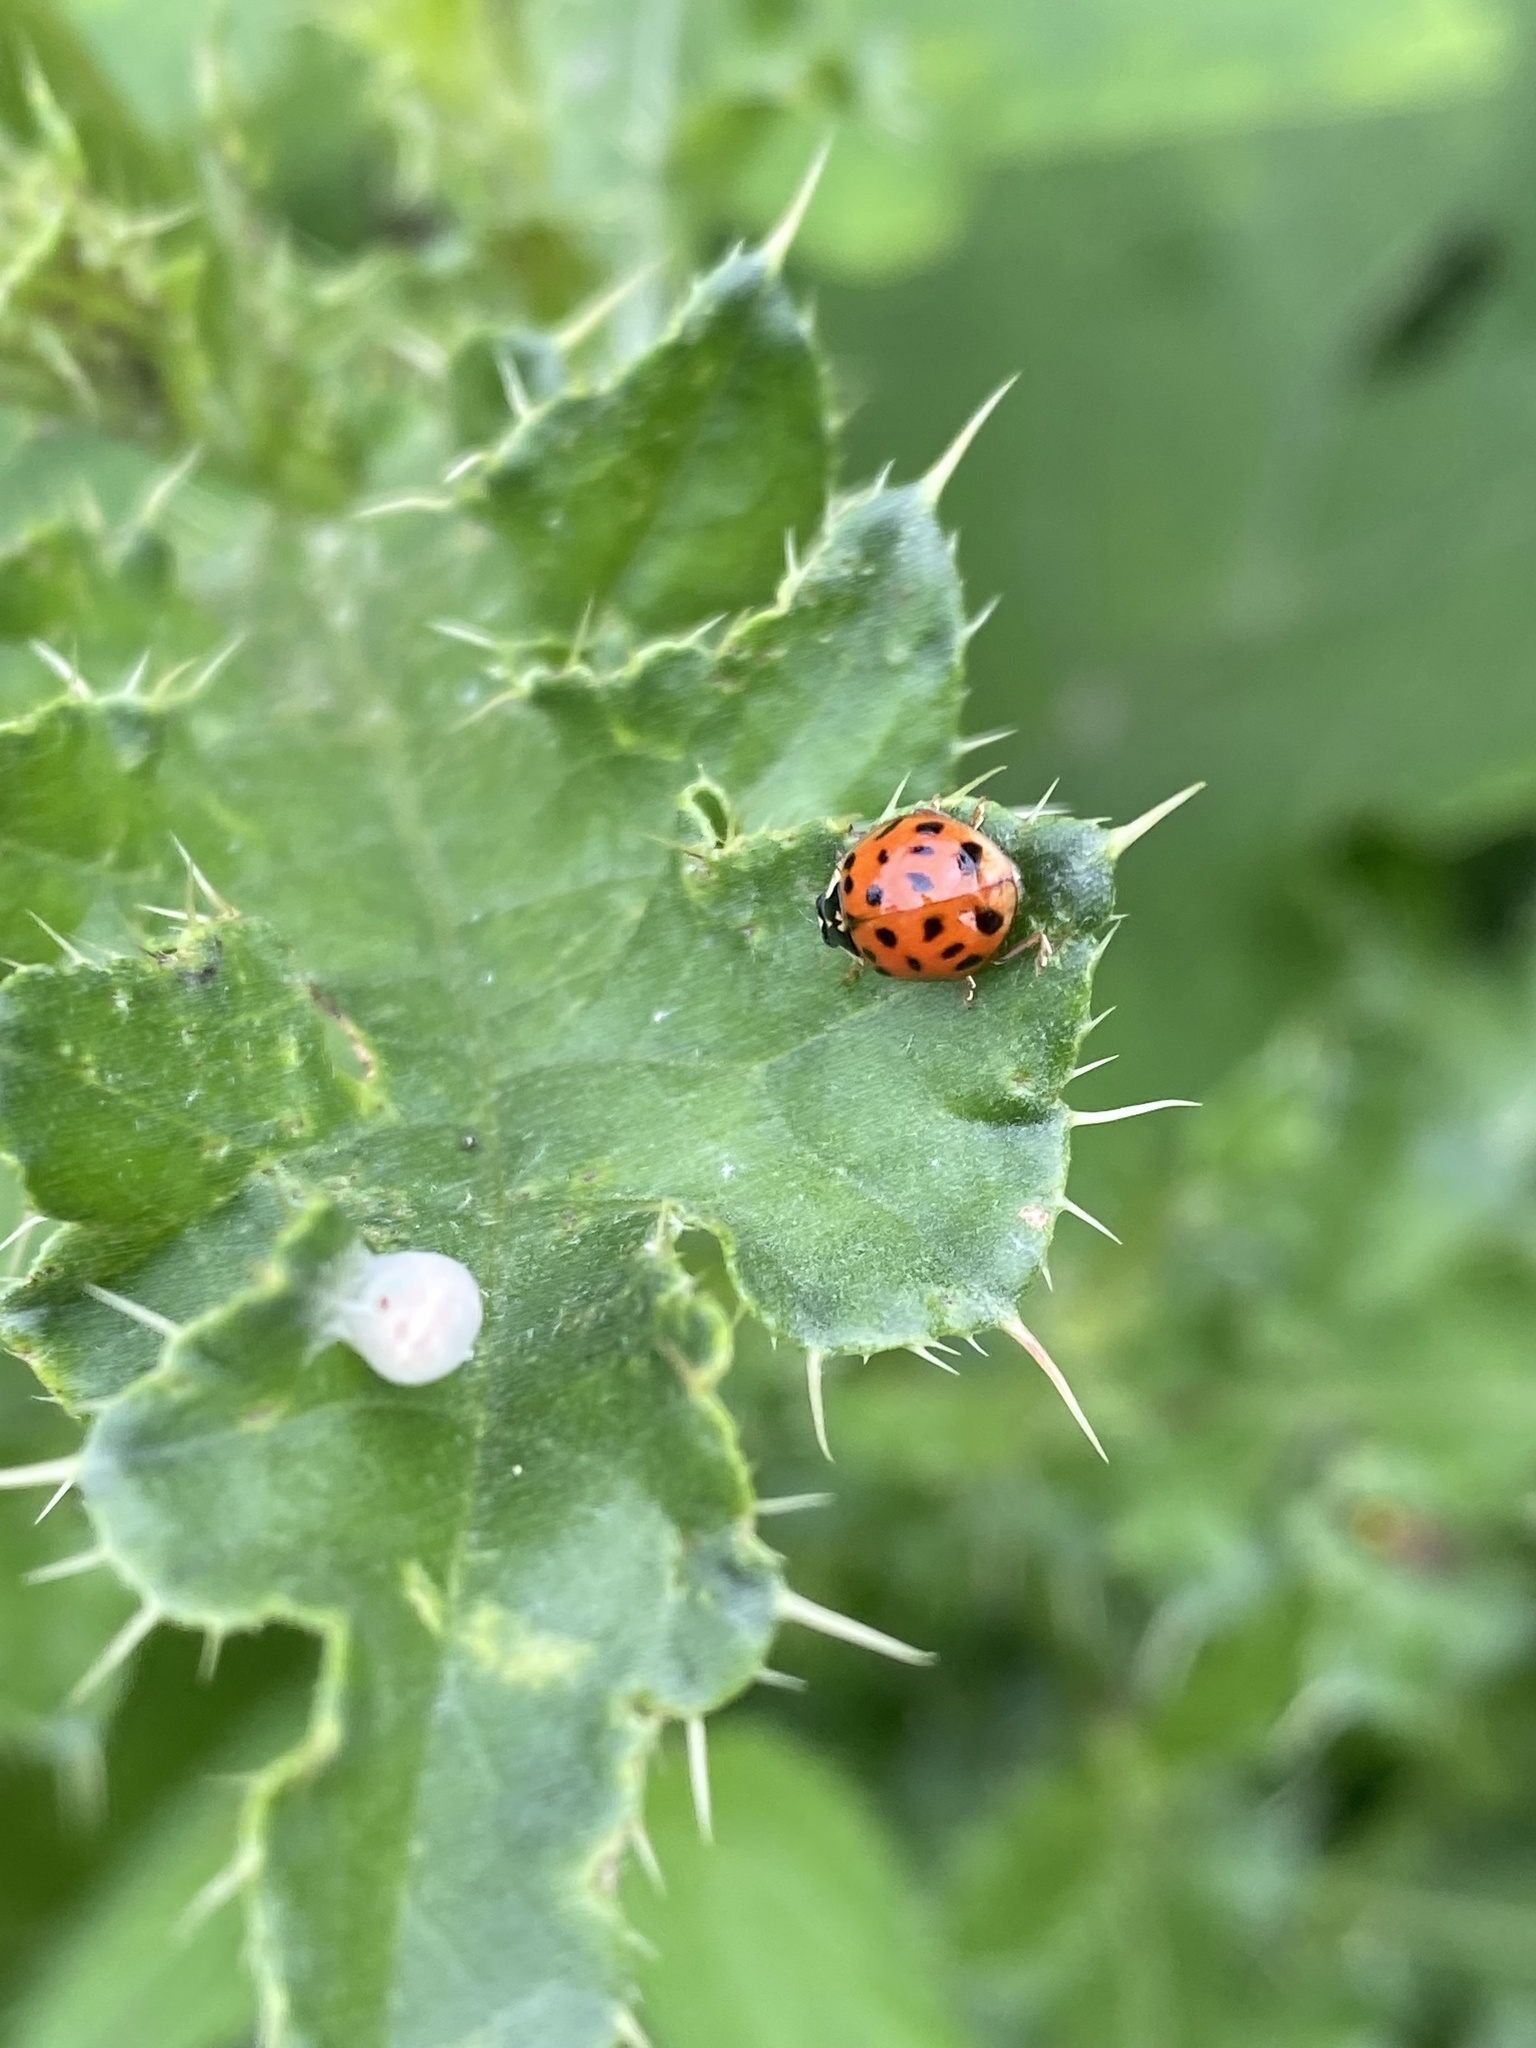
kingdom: Animalia
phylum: Arthropoda
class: Insecta
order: Coleoptera
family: Coccinellidae
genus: Harmonia
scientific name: Harmonia axyridis
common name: Harlequin ladybird
